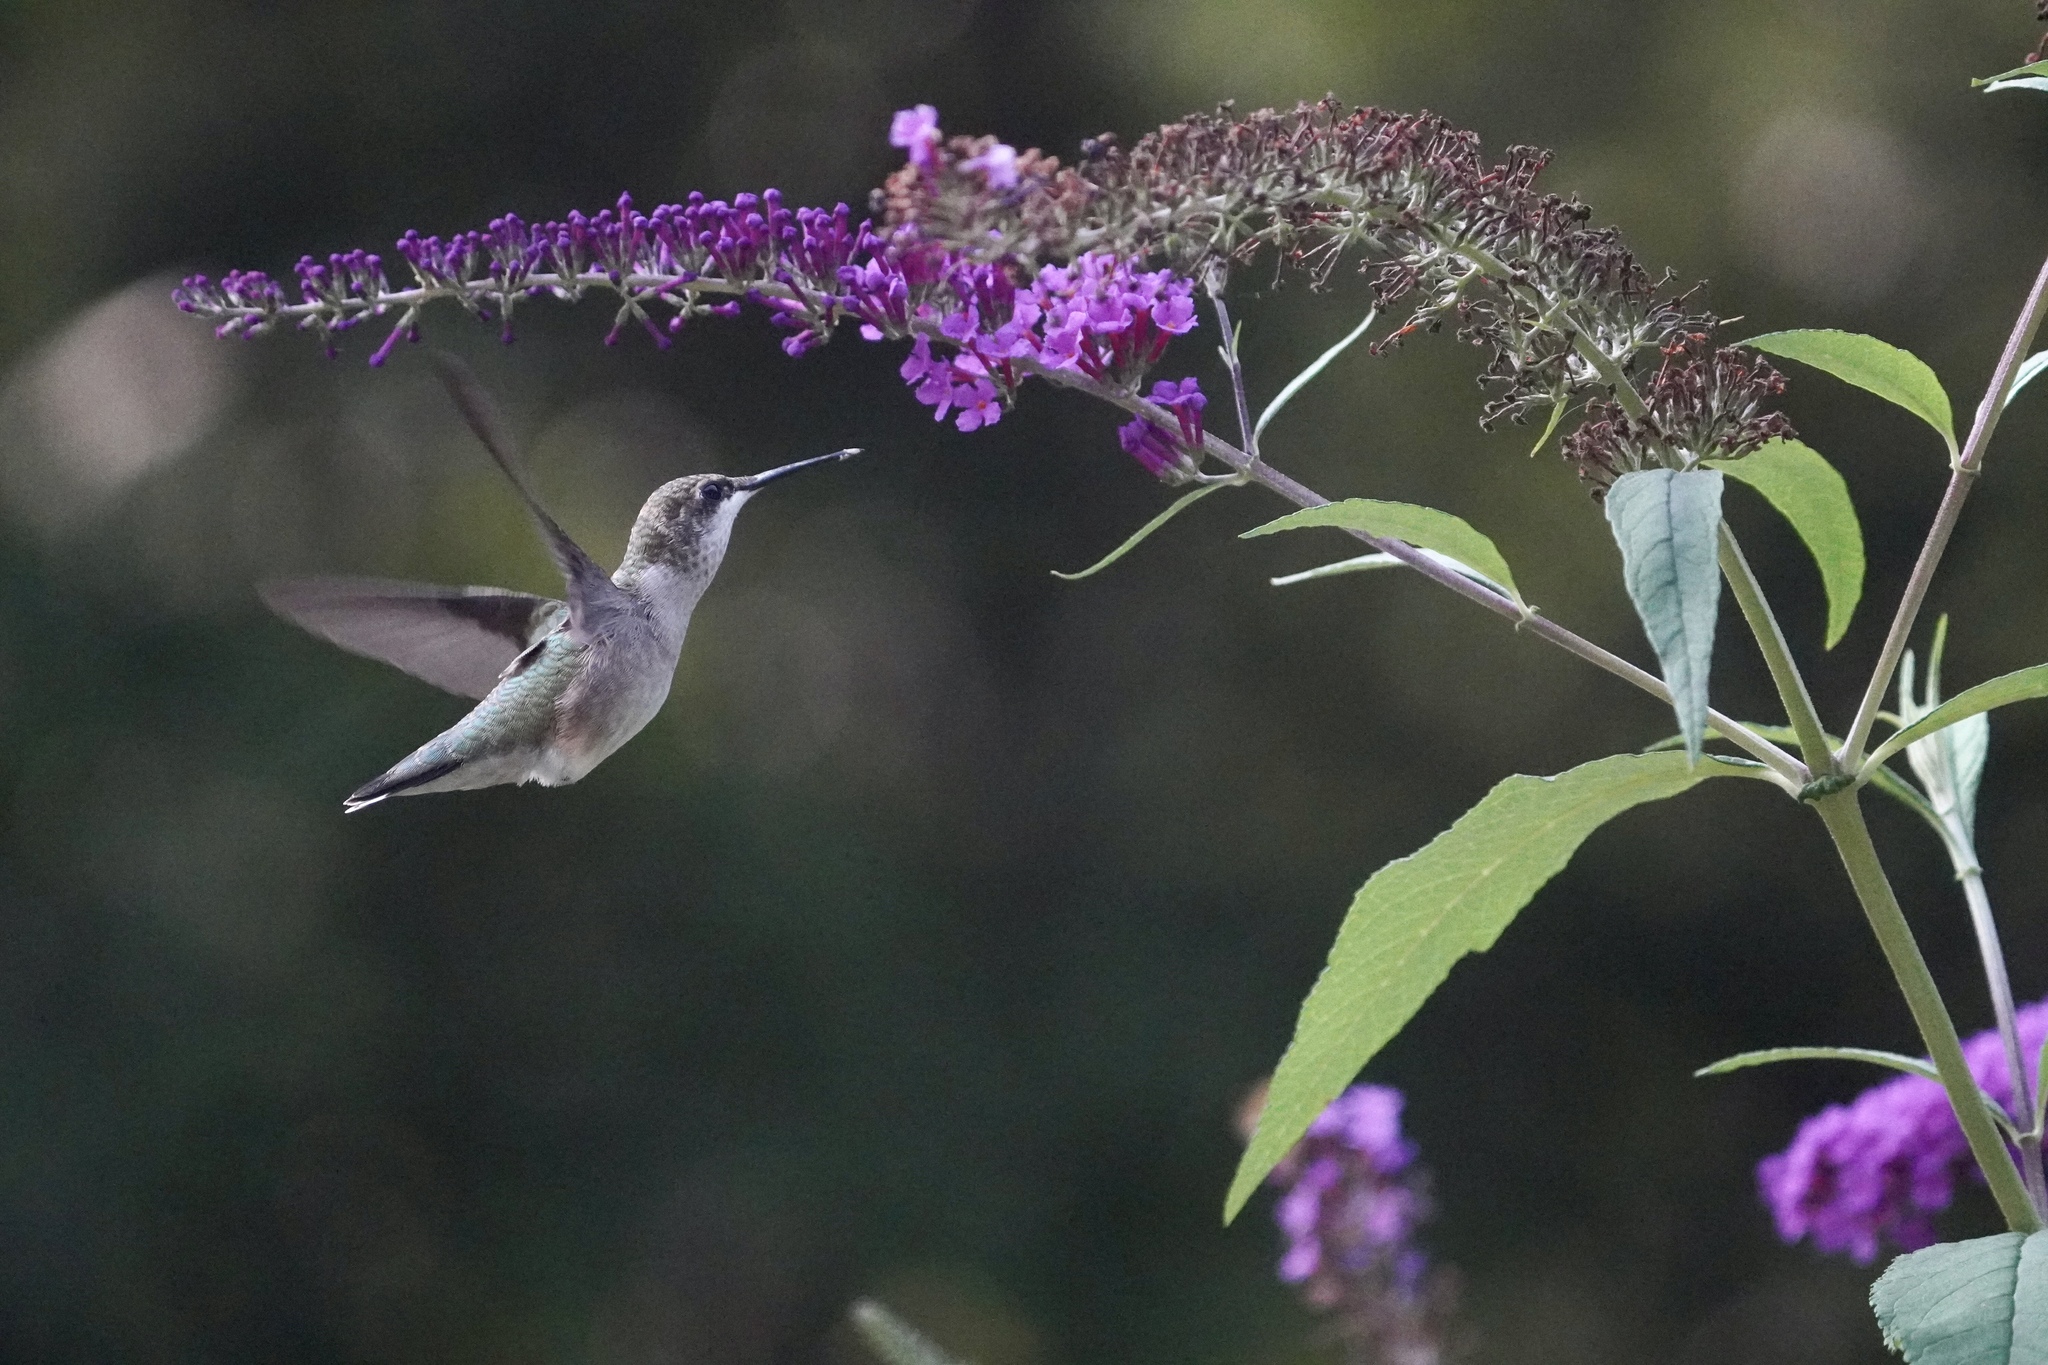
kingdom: Animalia
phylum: Chordata
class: Aves
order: Apodiformes
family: Trochilidae
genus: Archilochus
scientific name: Archilochus colubris
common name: Ruby-throated hummingbird
